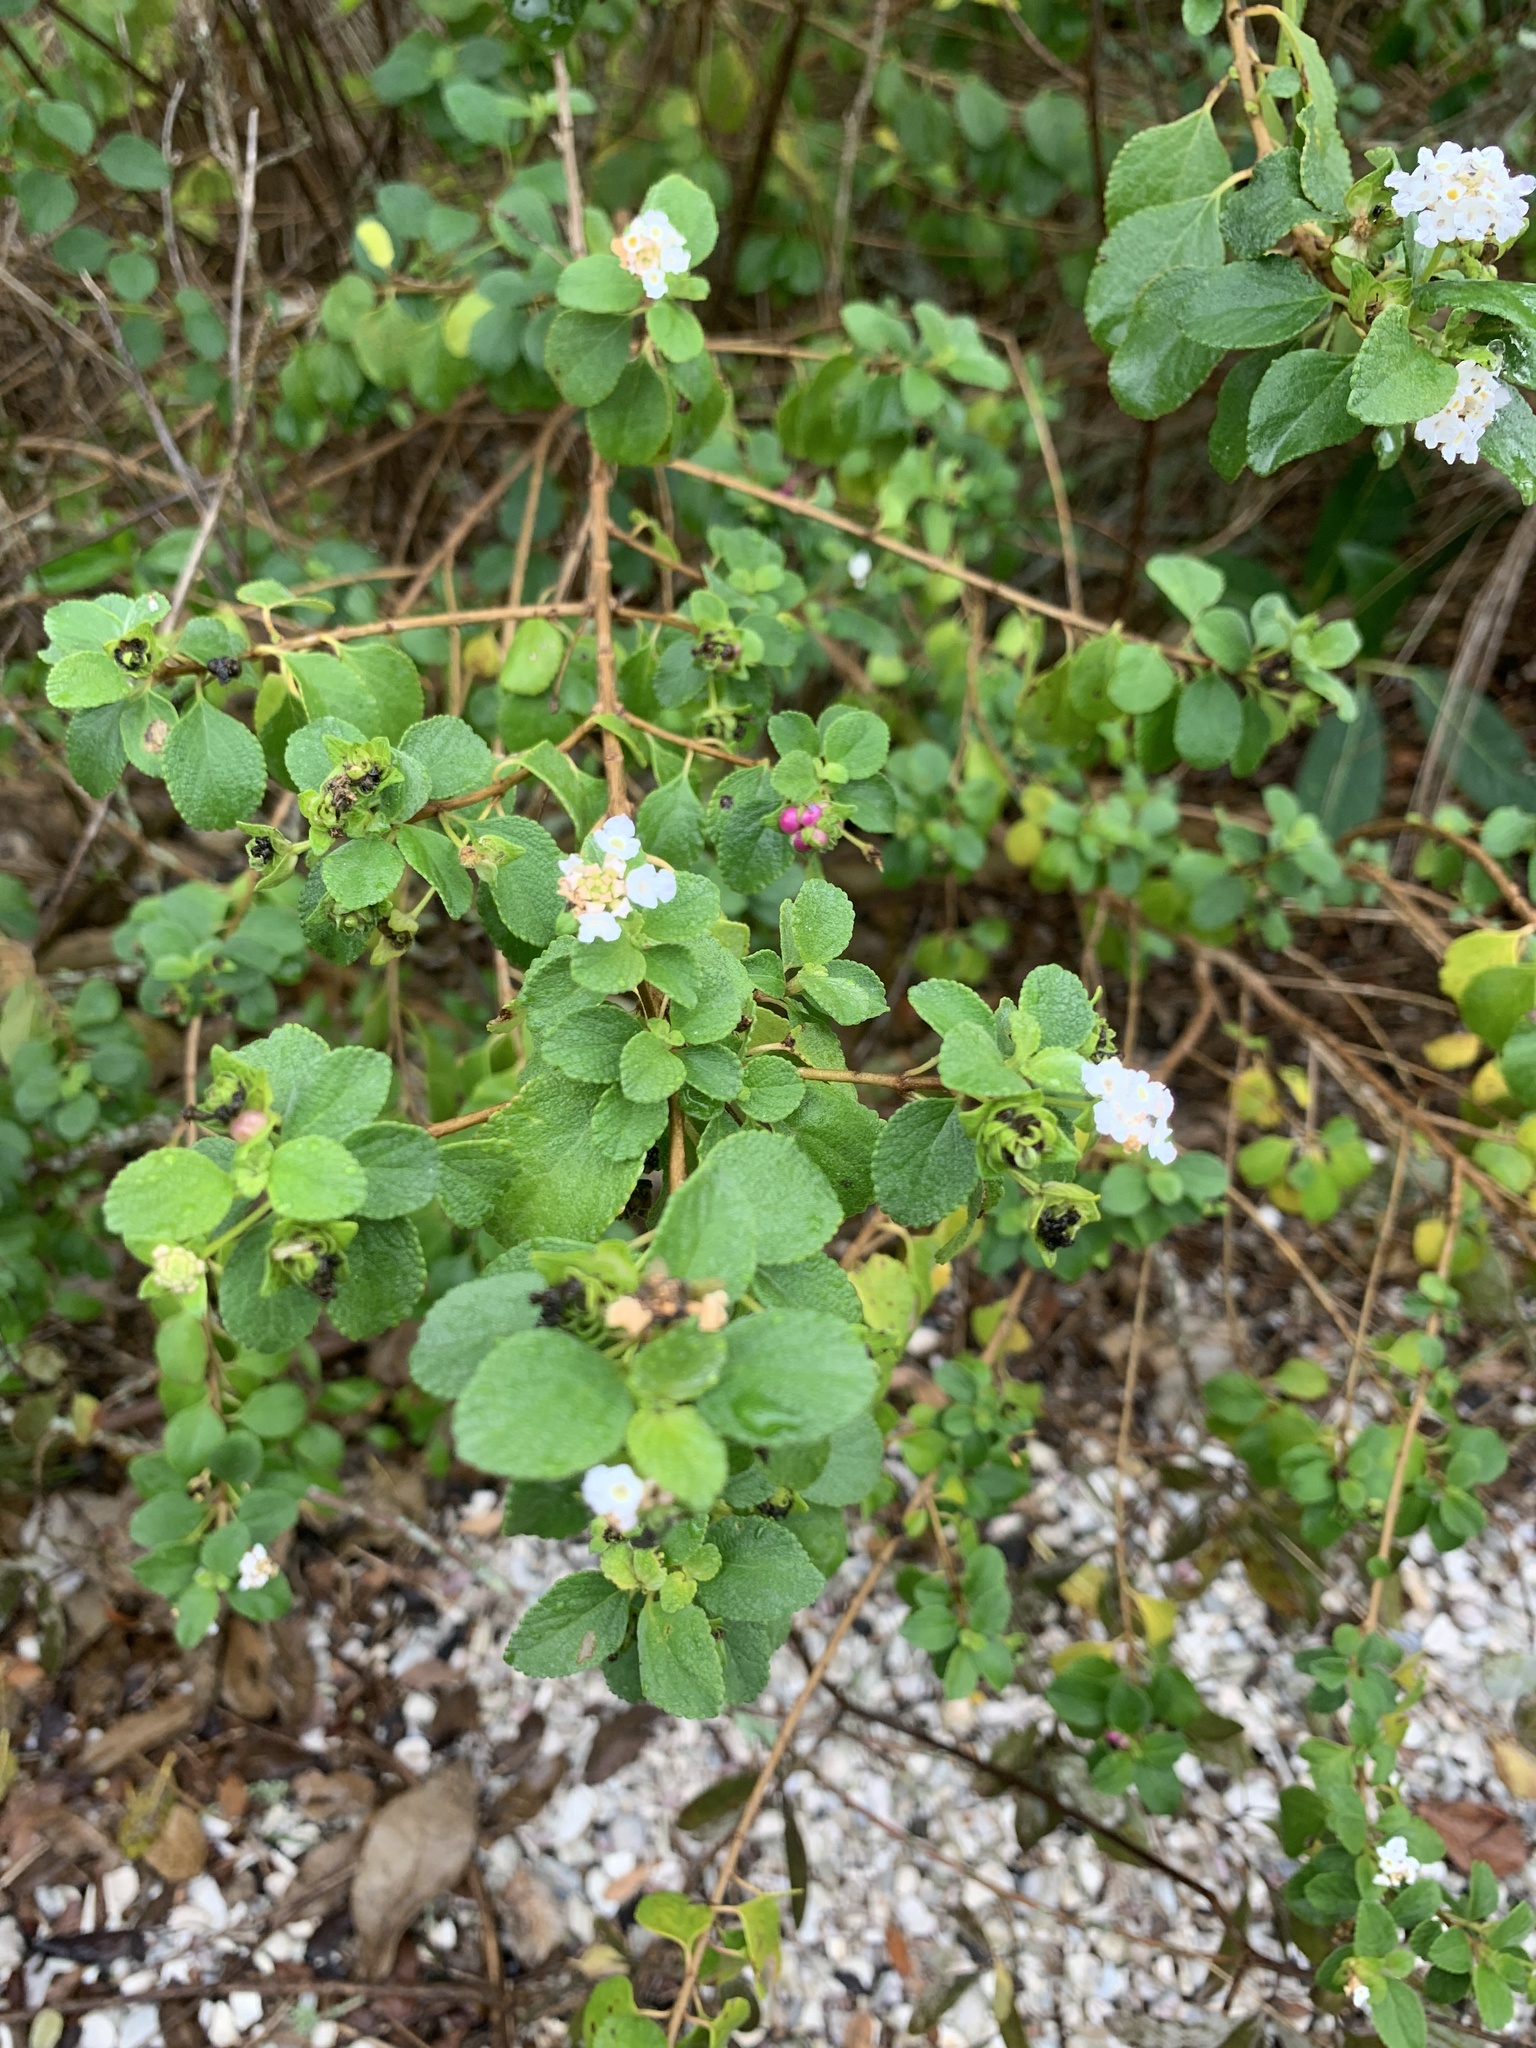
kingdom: Plantae
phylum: Tracheophyta
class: Magnoliopsida
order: Lamiales
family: Verbenaceae
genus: Lantana
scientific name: Lantana involucrata
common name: Black sage
